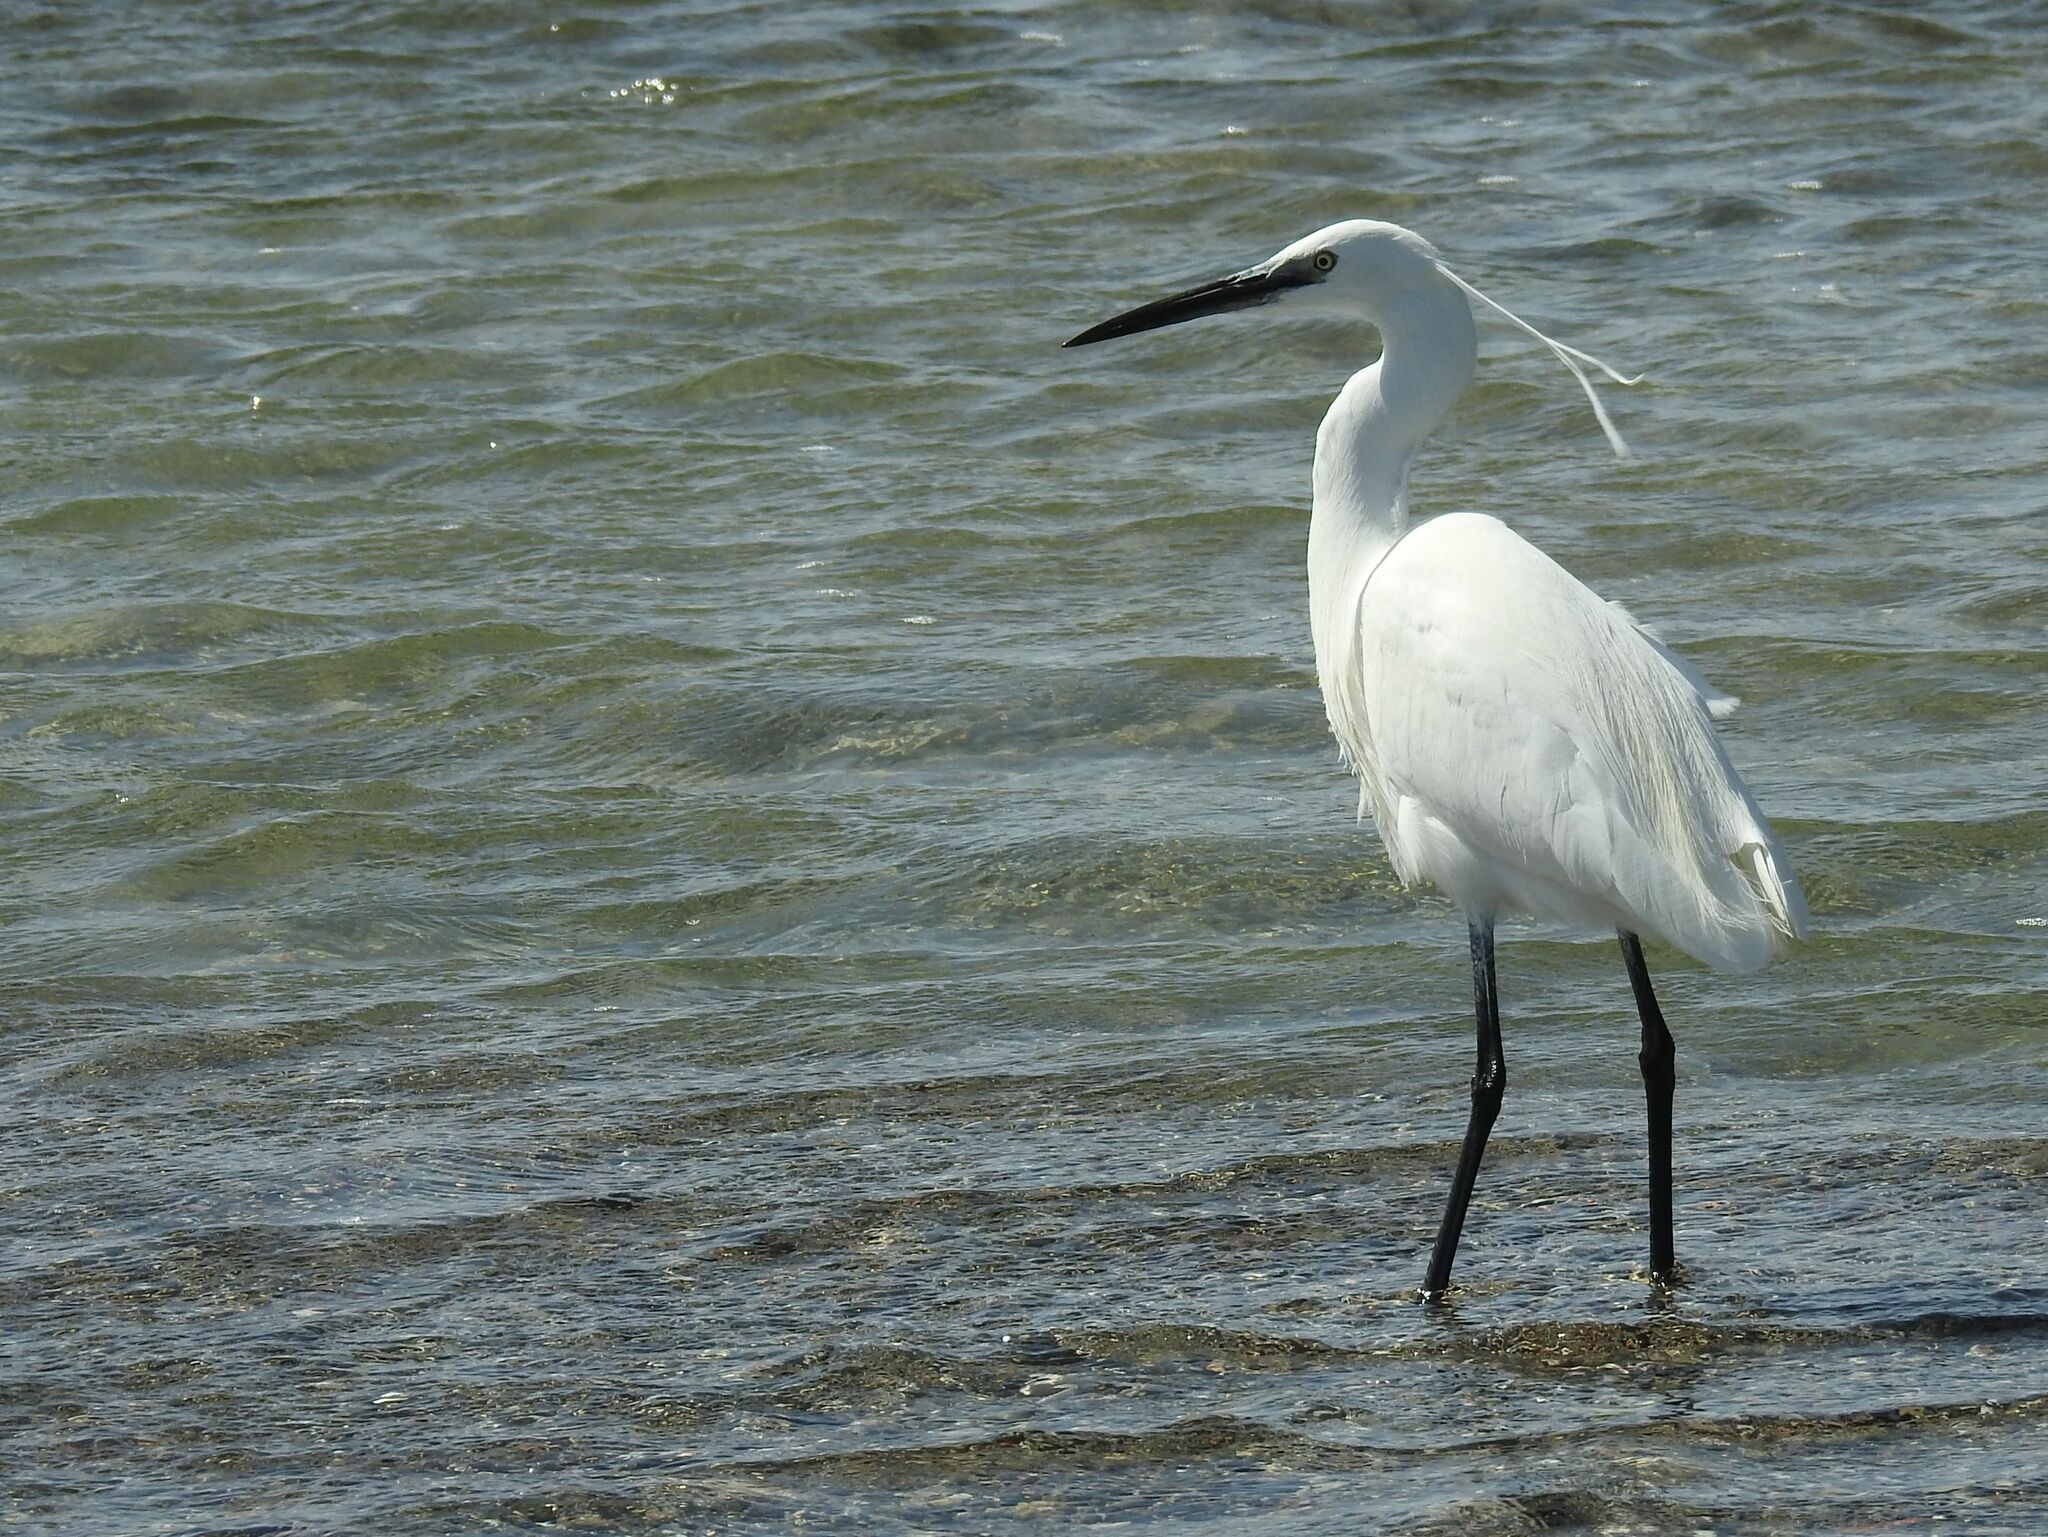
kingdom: Animalia
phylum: Chordata
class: Aves
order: Pelecaniformes
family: Ardeidae
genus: Egretta
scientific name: Egretta garzetta
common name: Little egret
